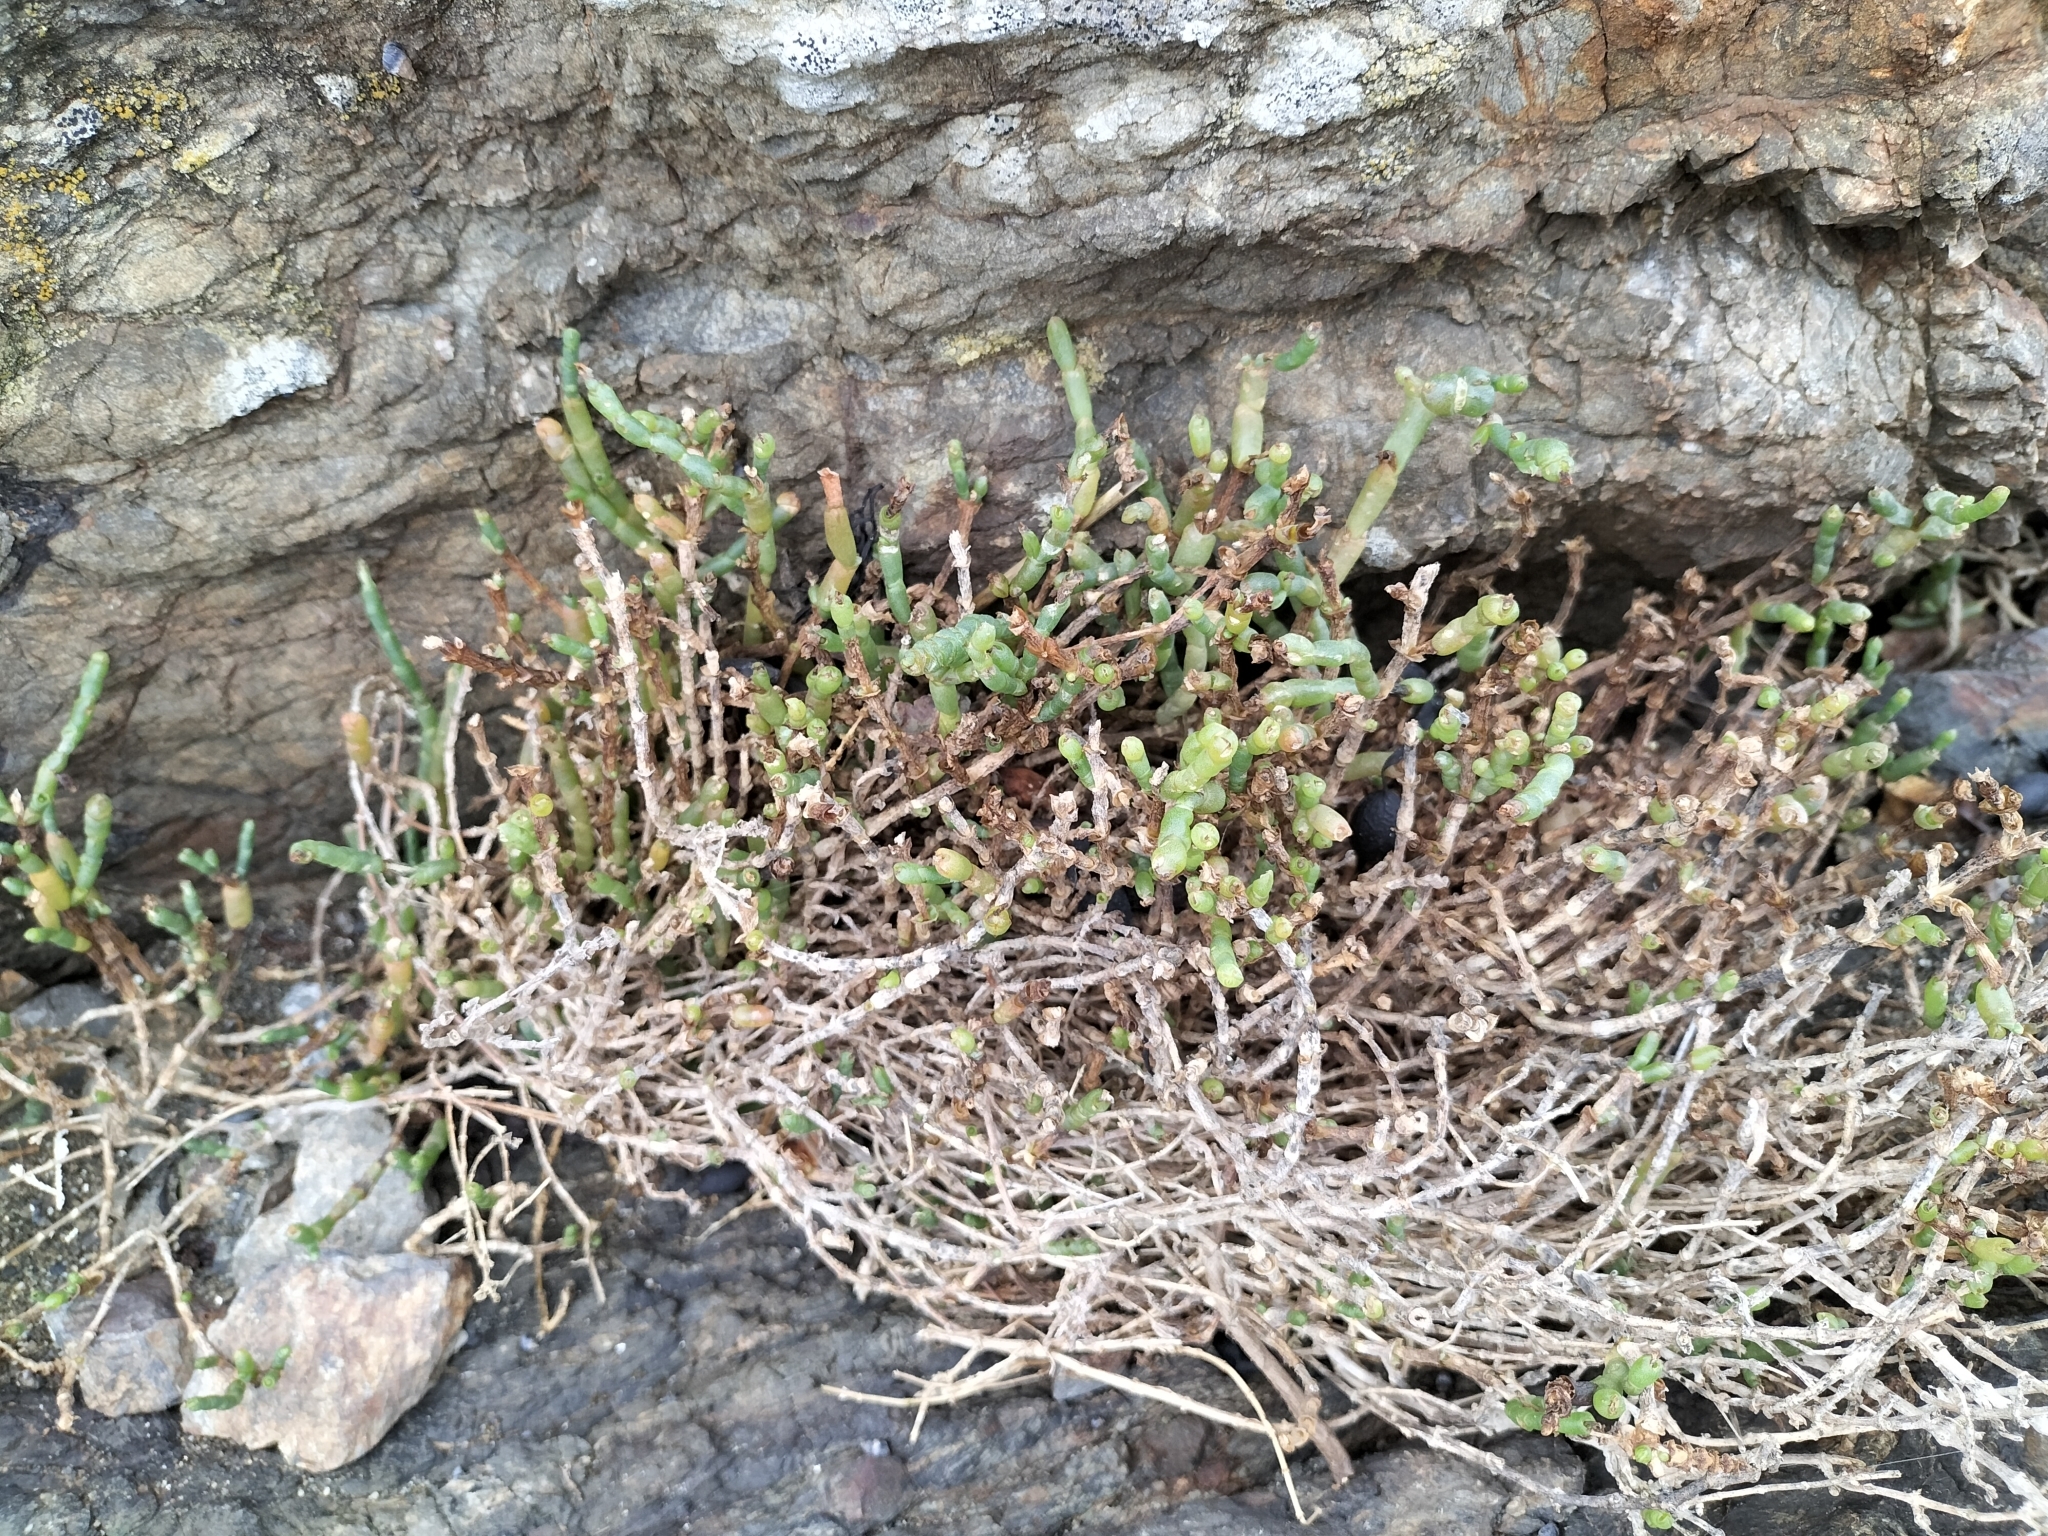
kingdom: Plantae
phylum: Tracheophyta
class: Magnoliopsida
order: Caryophyllales
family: Amaranthaceae
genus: Salicornia
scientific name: Salicornia quinqueflora
